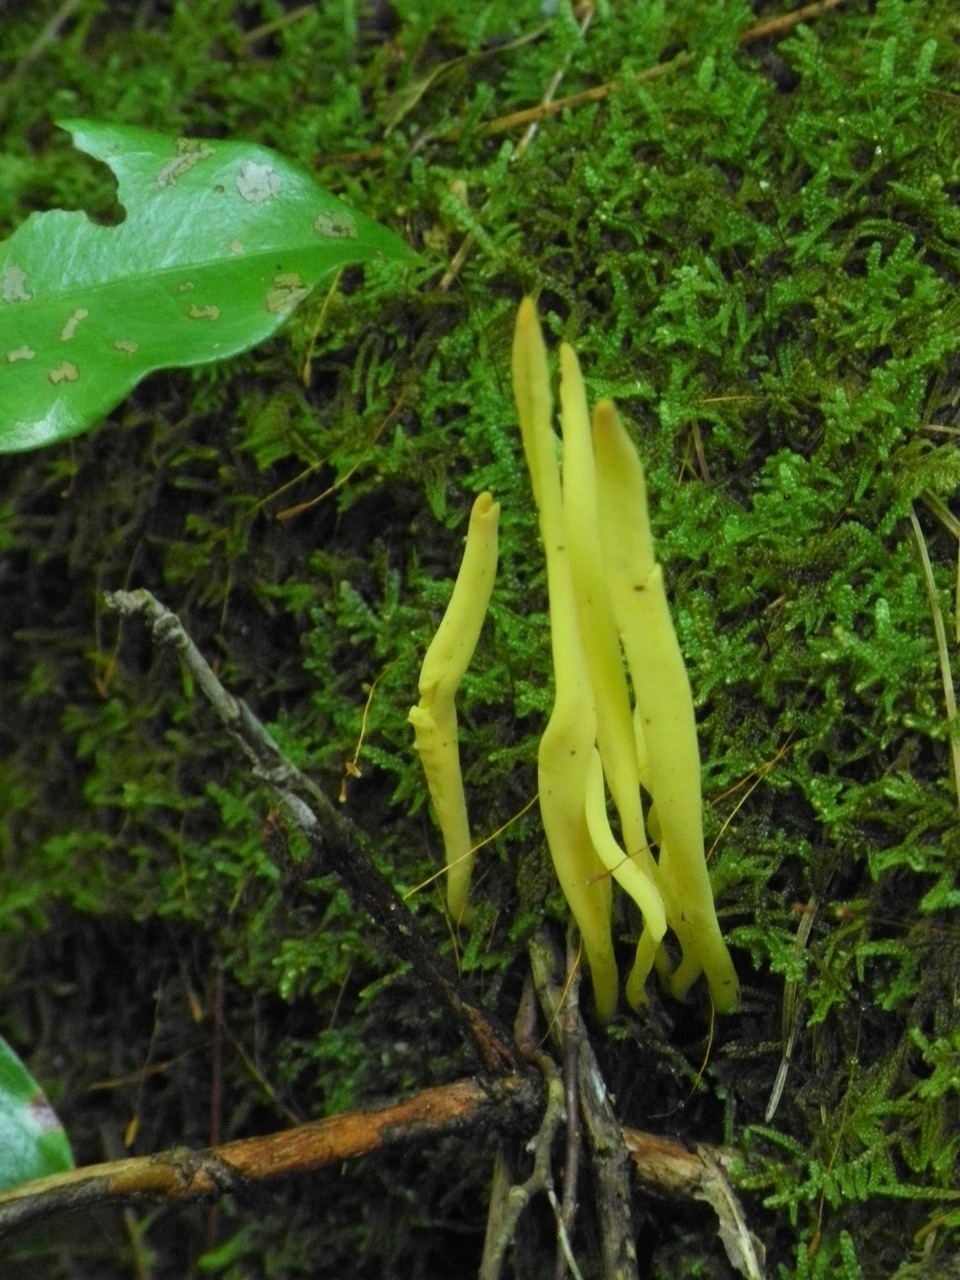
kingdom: Fungi
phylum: Basidiomycota
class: Agaricomycetes
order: Agaricales
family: Clavariaceae
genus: Clavulinopsis
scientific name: Clavulinopsis fusiformis
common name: Golden spindles
